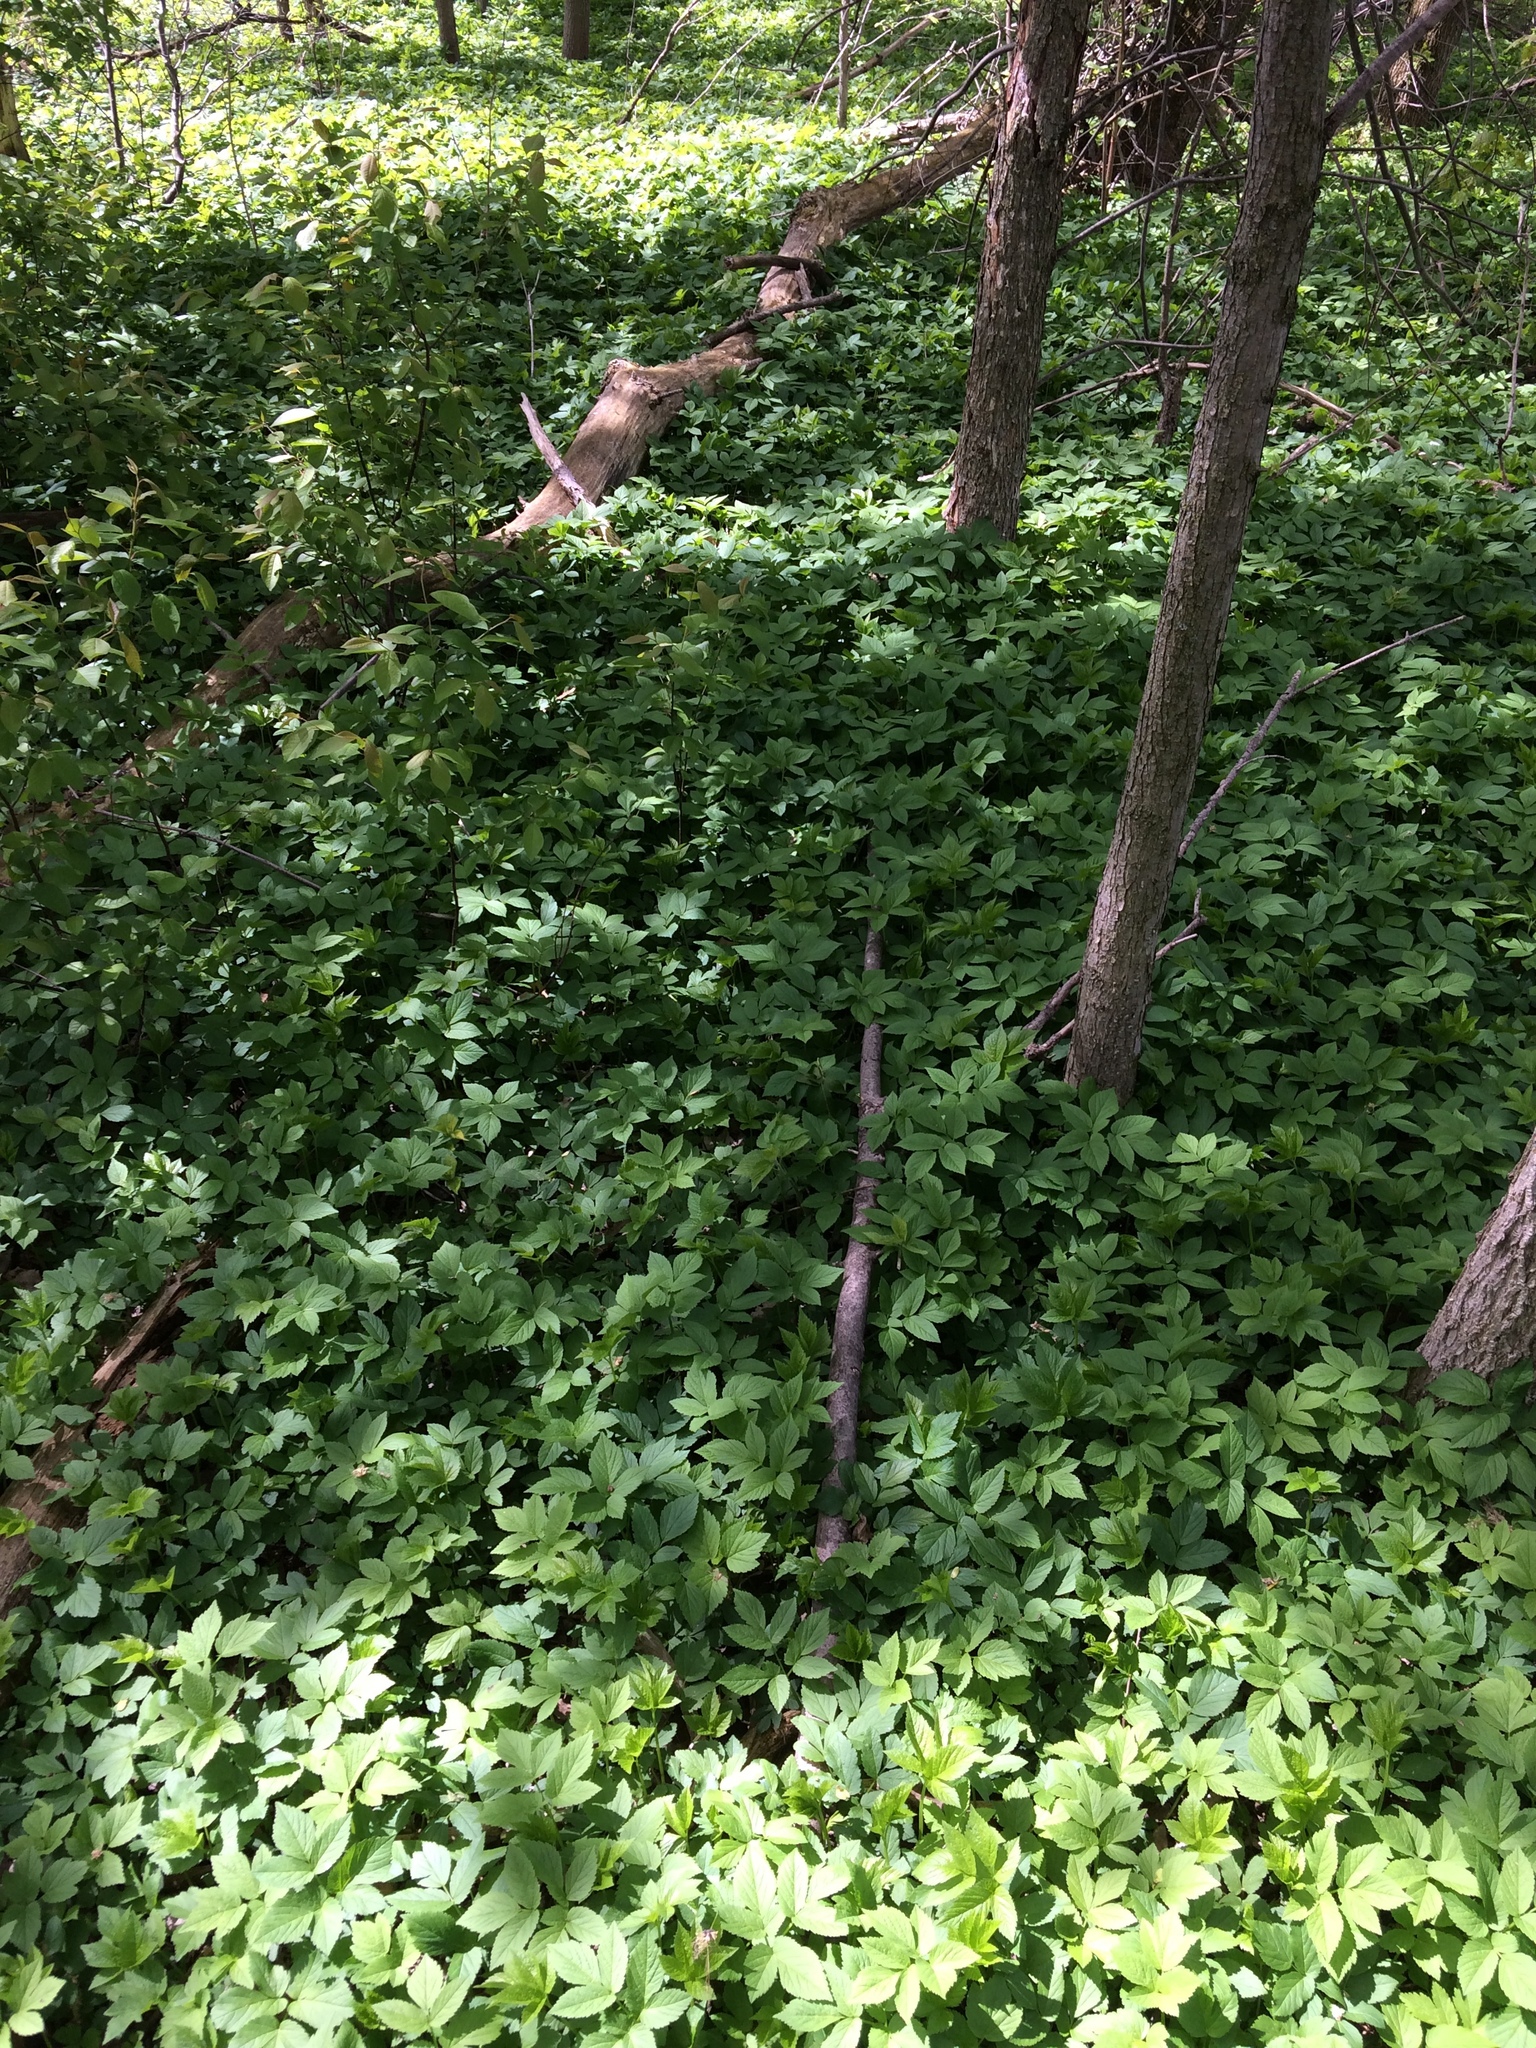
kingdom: Plantae
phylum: Tracheophyta
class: Magnoliopsida
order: Apiales
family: Apiaceae
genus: Aegopodium
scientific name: Aegopodium podagraria
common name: Ground-elder
